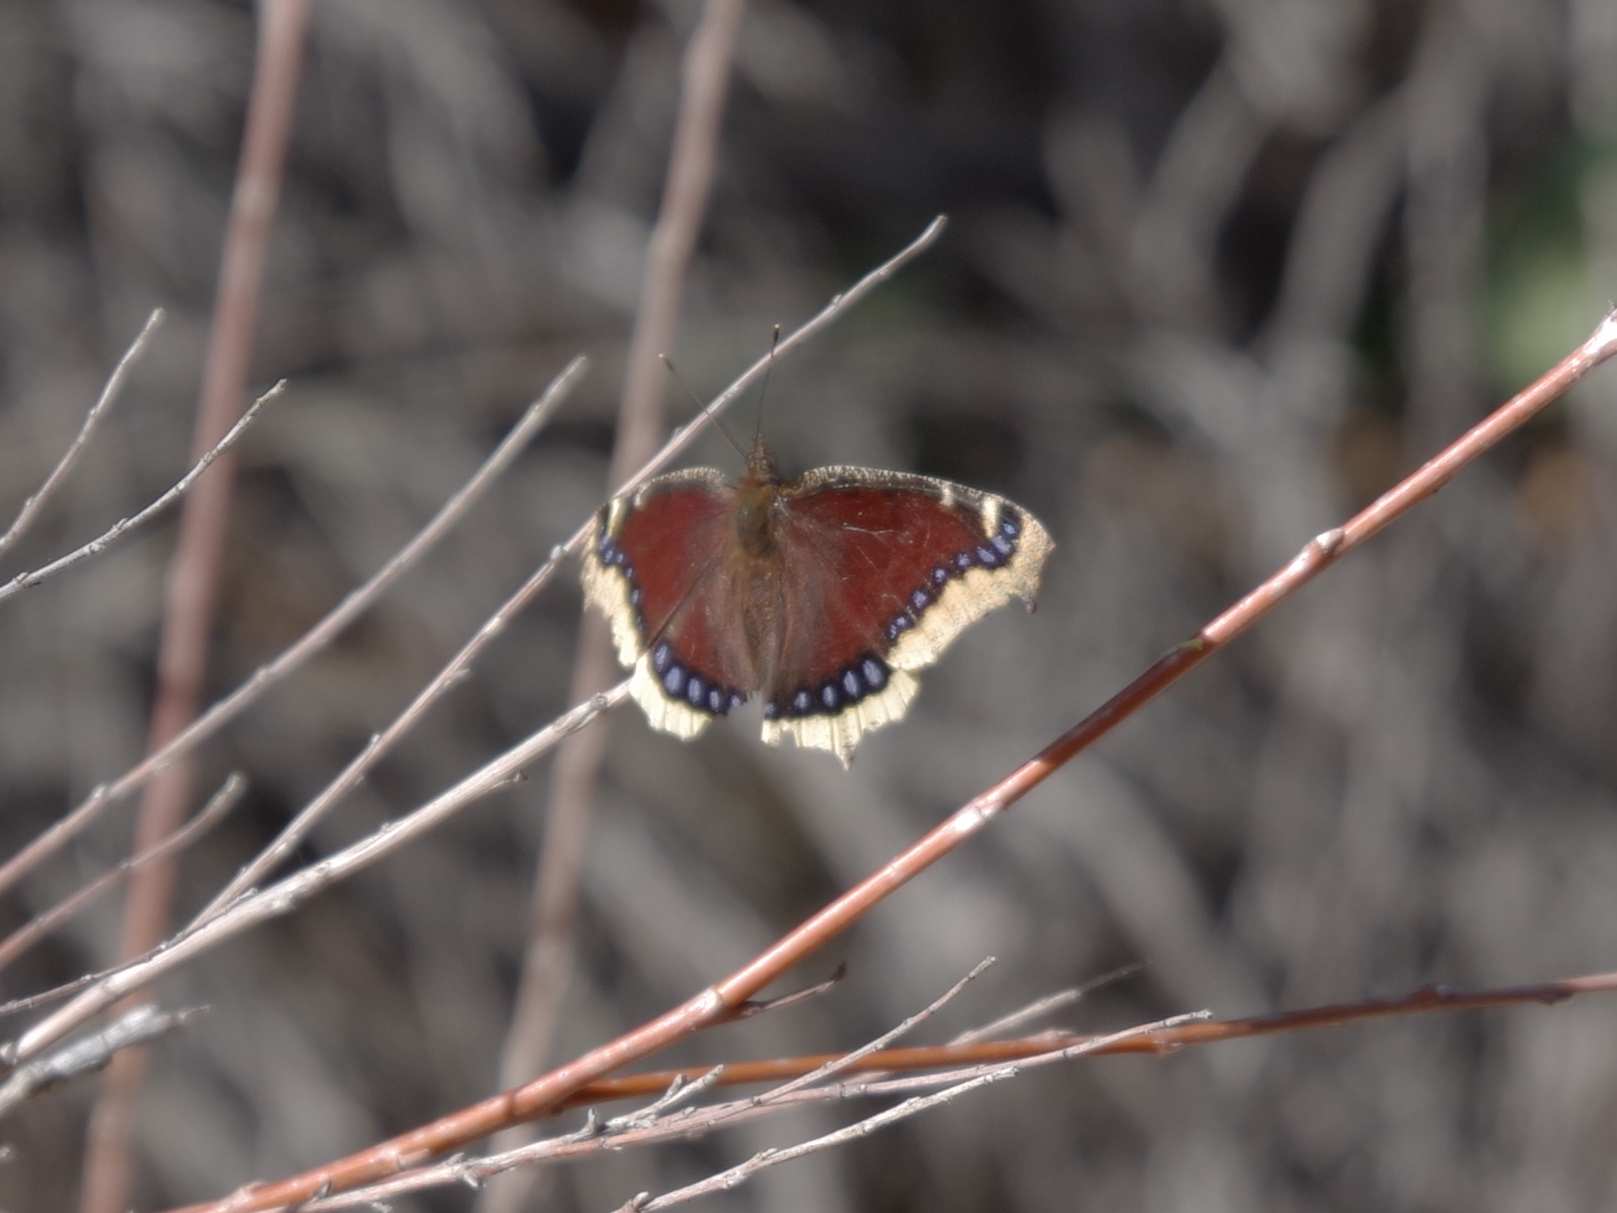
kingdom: Animalia
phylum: Arthropoda
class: Insecta
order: Lepidoptera
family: Nymphalidae
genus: Nymphalis
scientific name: Nymphalis antiopa
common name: Camberwell beauty
